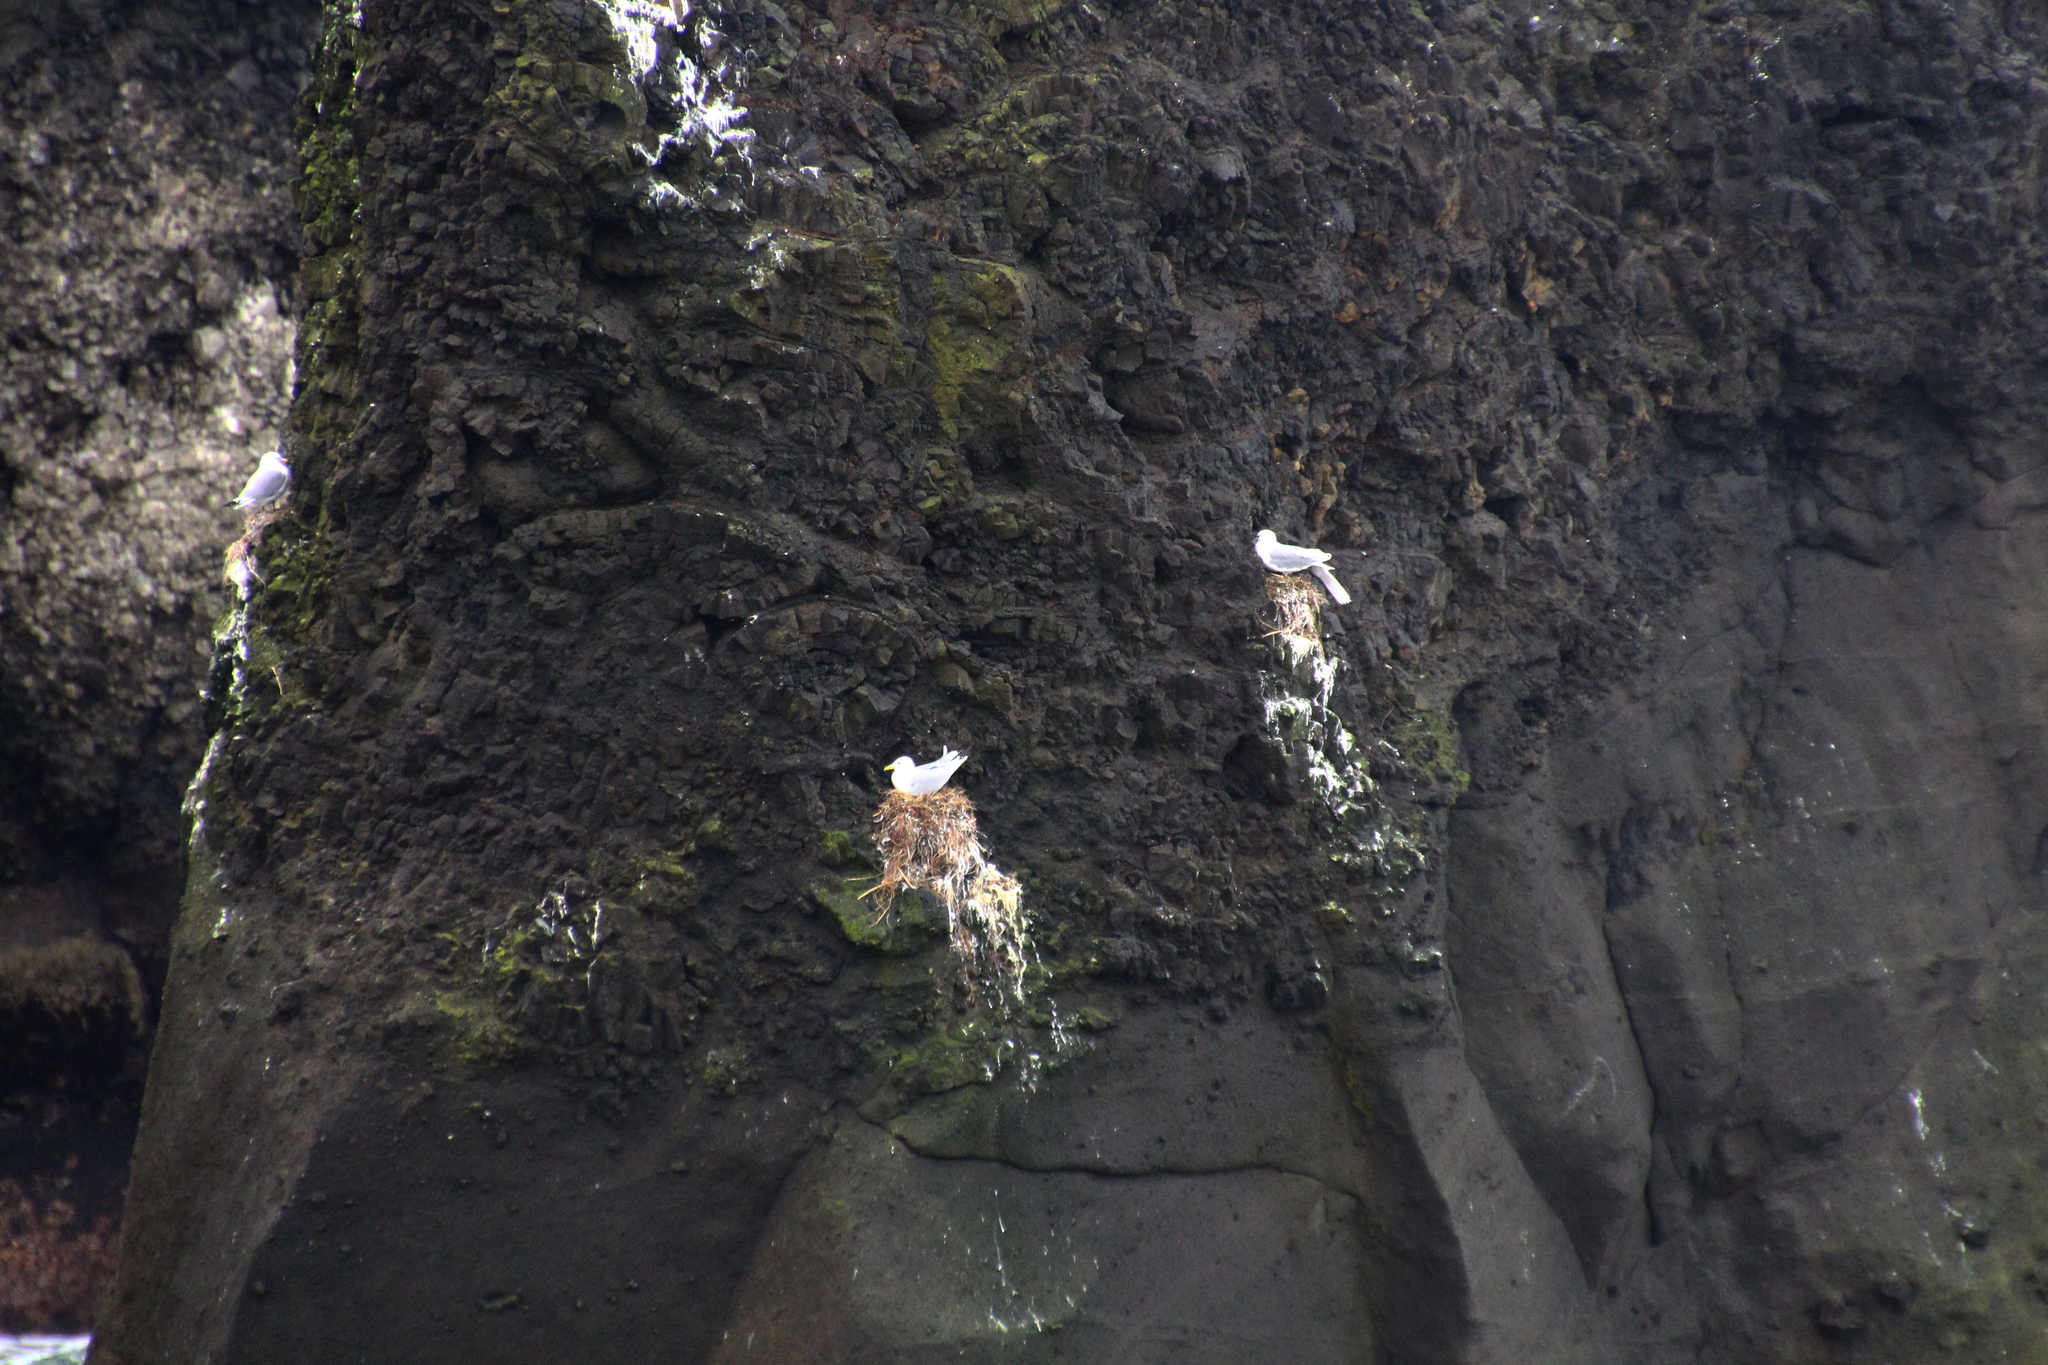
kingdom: Animalia
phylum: Chordata
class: Aves
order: Charadriiformes
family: Laridae
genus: Rissa
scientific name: Rissa tridactyla
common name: Black-legged kittiwake
